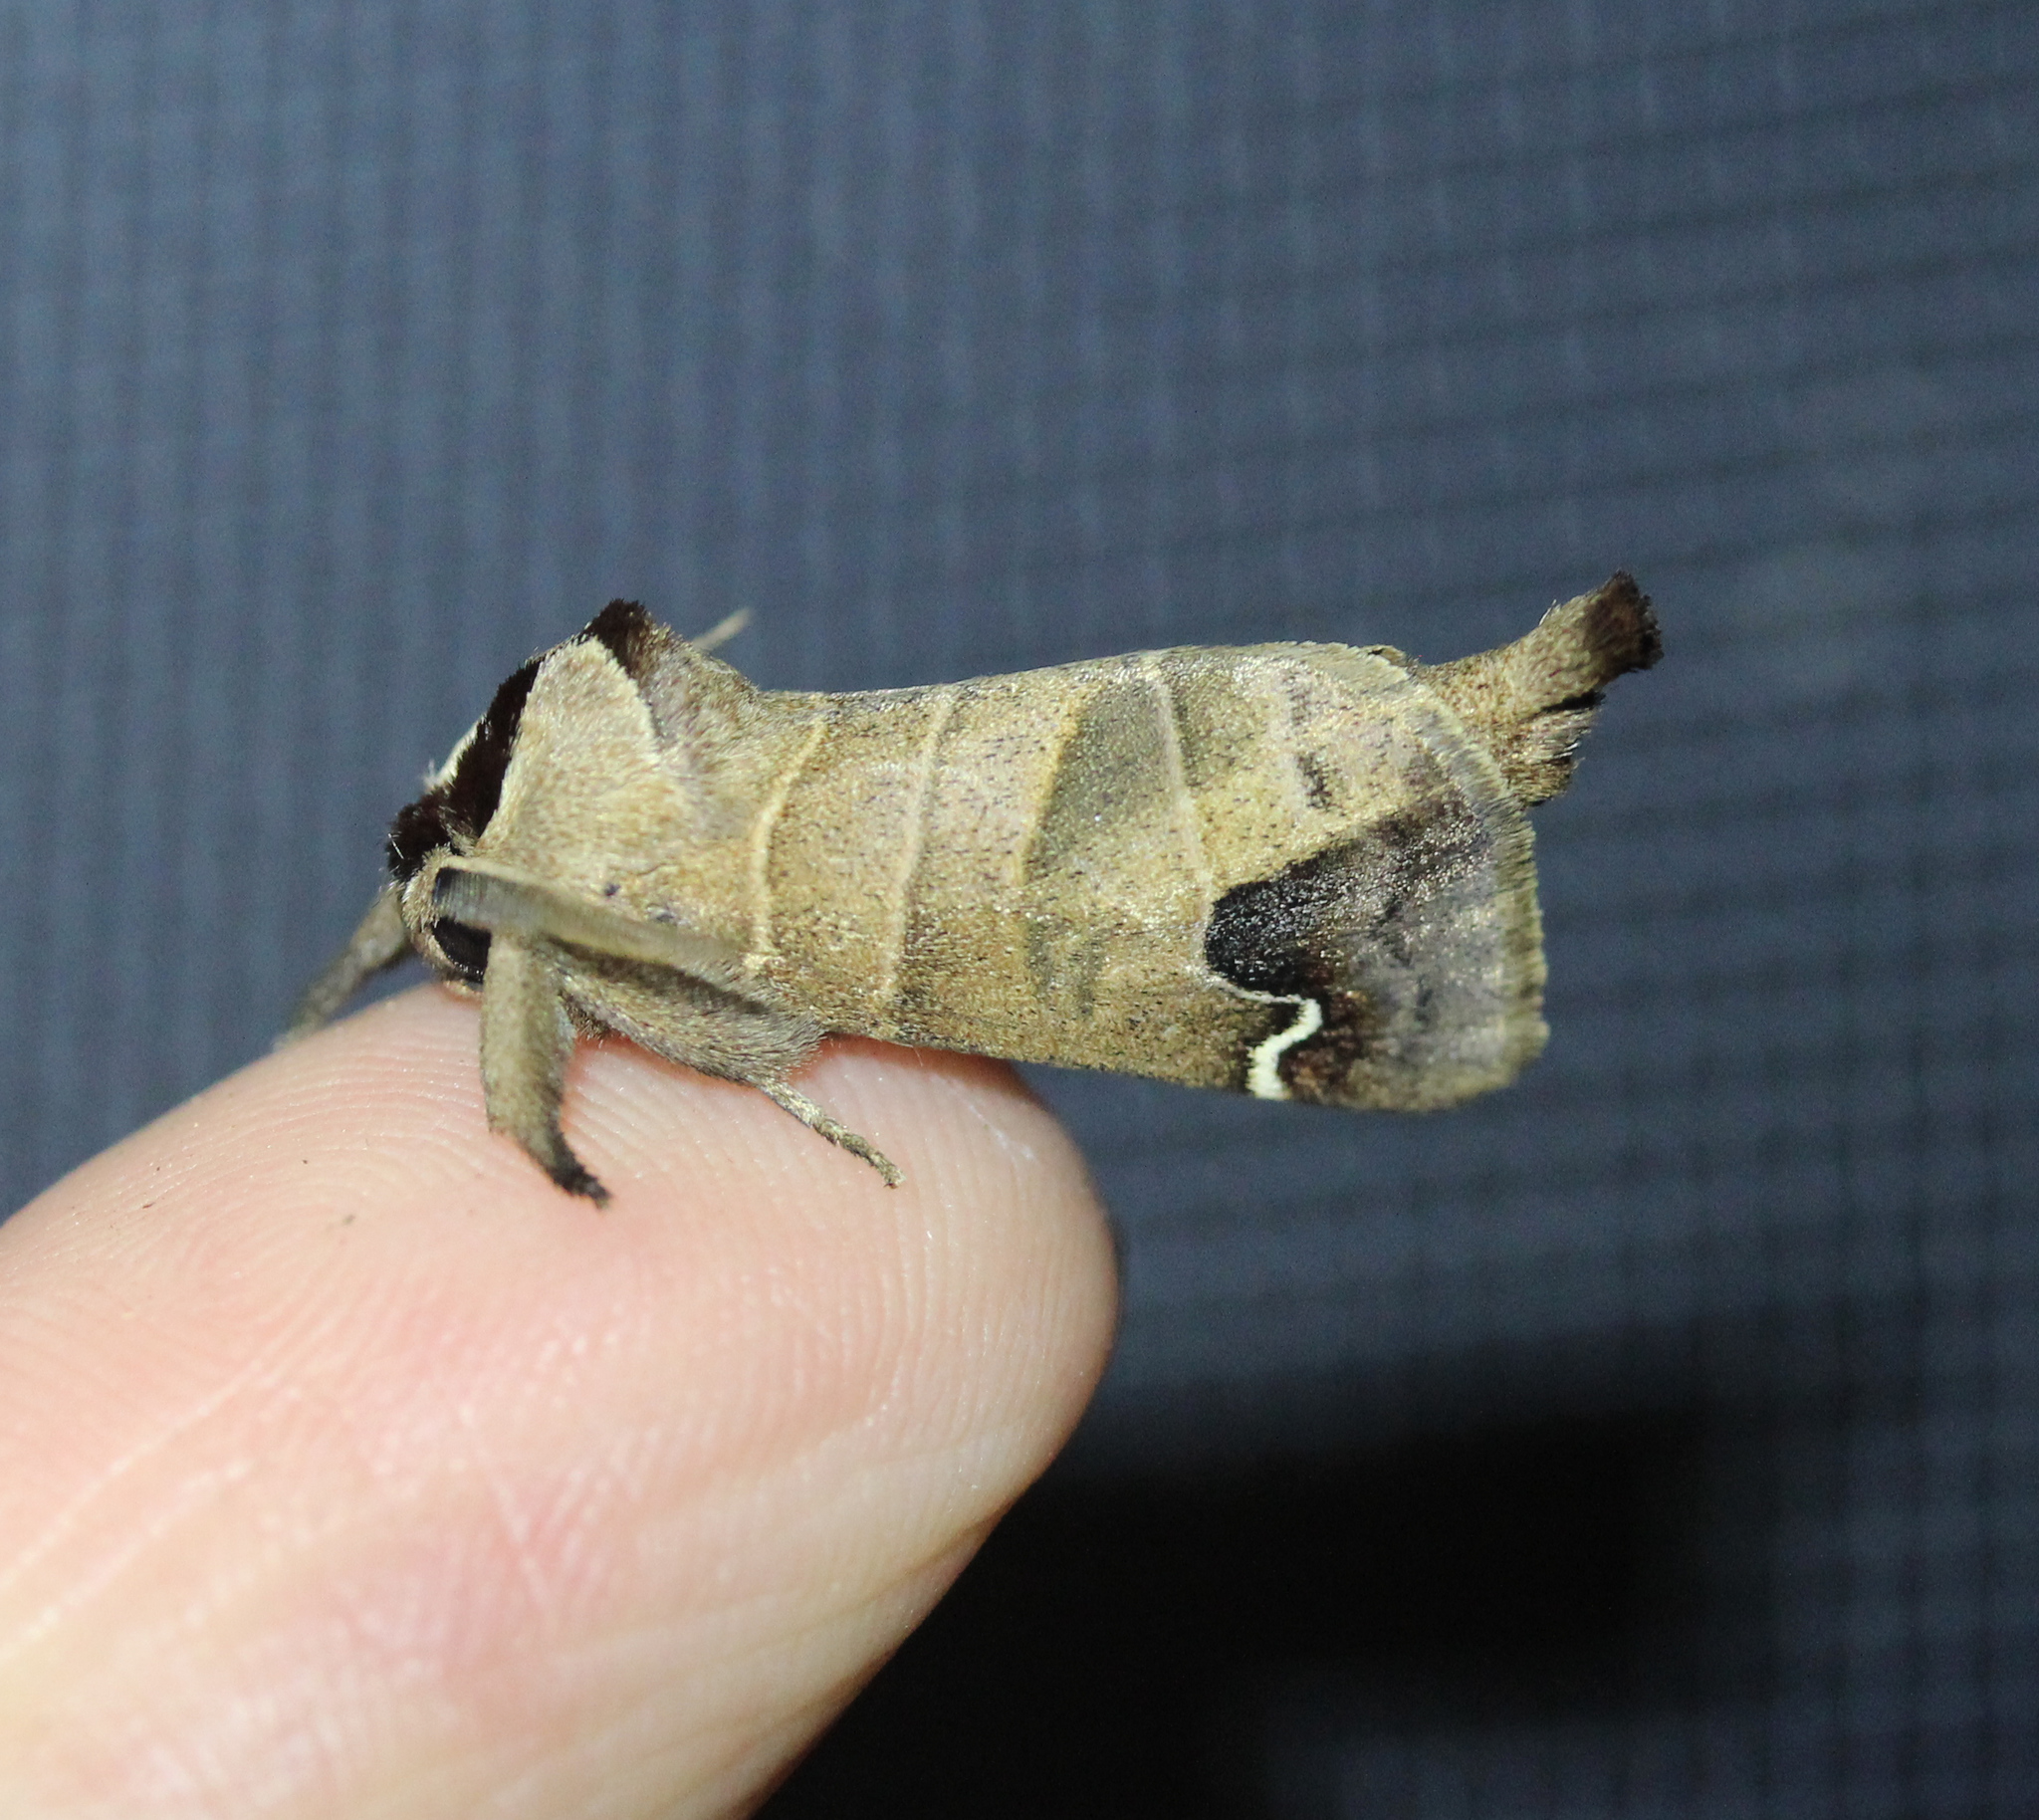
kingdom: Animalia
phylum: Arthropoda
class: Insecta
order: Lepidoptera
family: Notodontidae
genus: Clostera
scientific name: Clostera albosigma
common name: Sigmoid prominent
